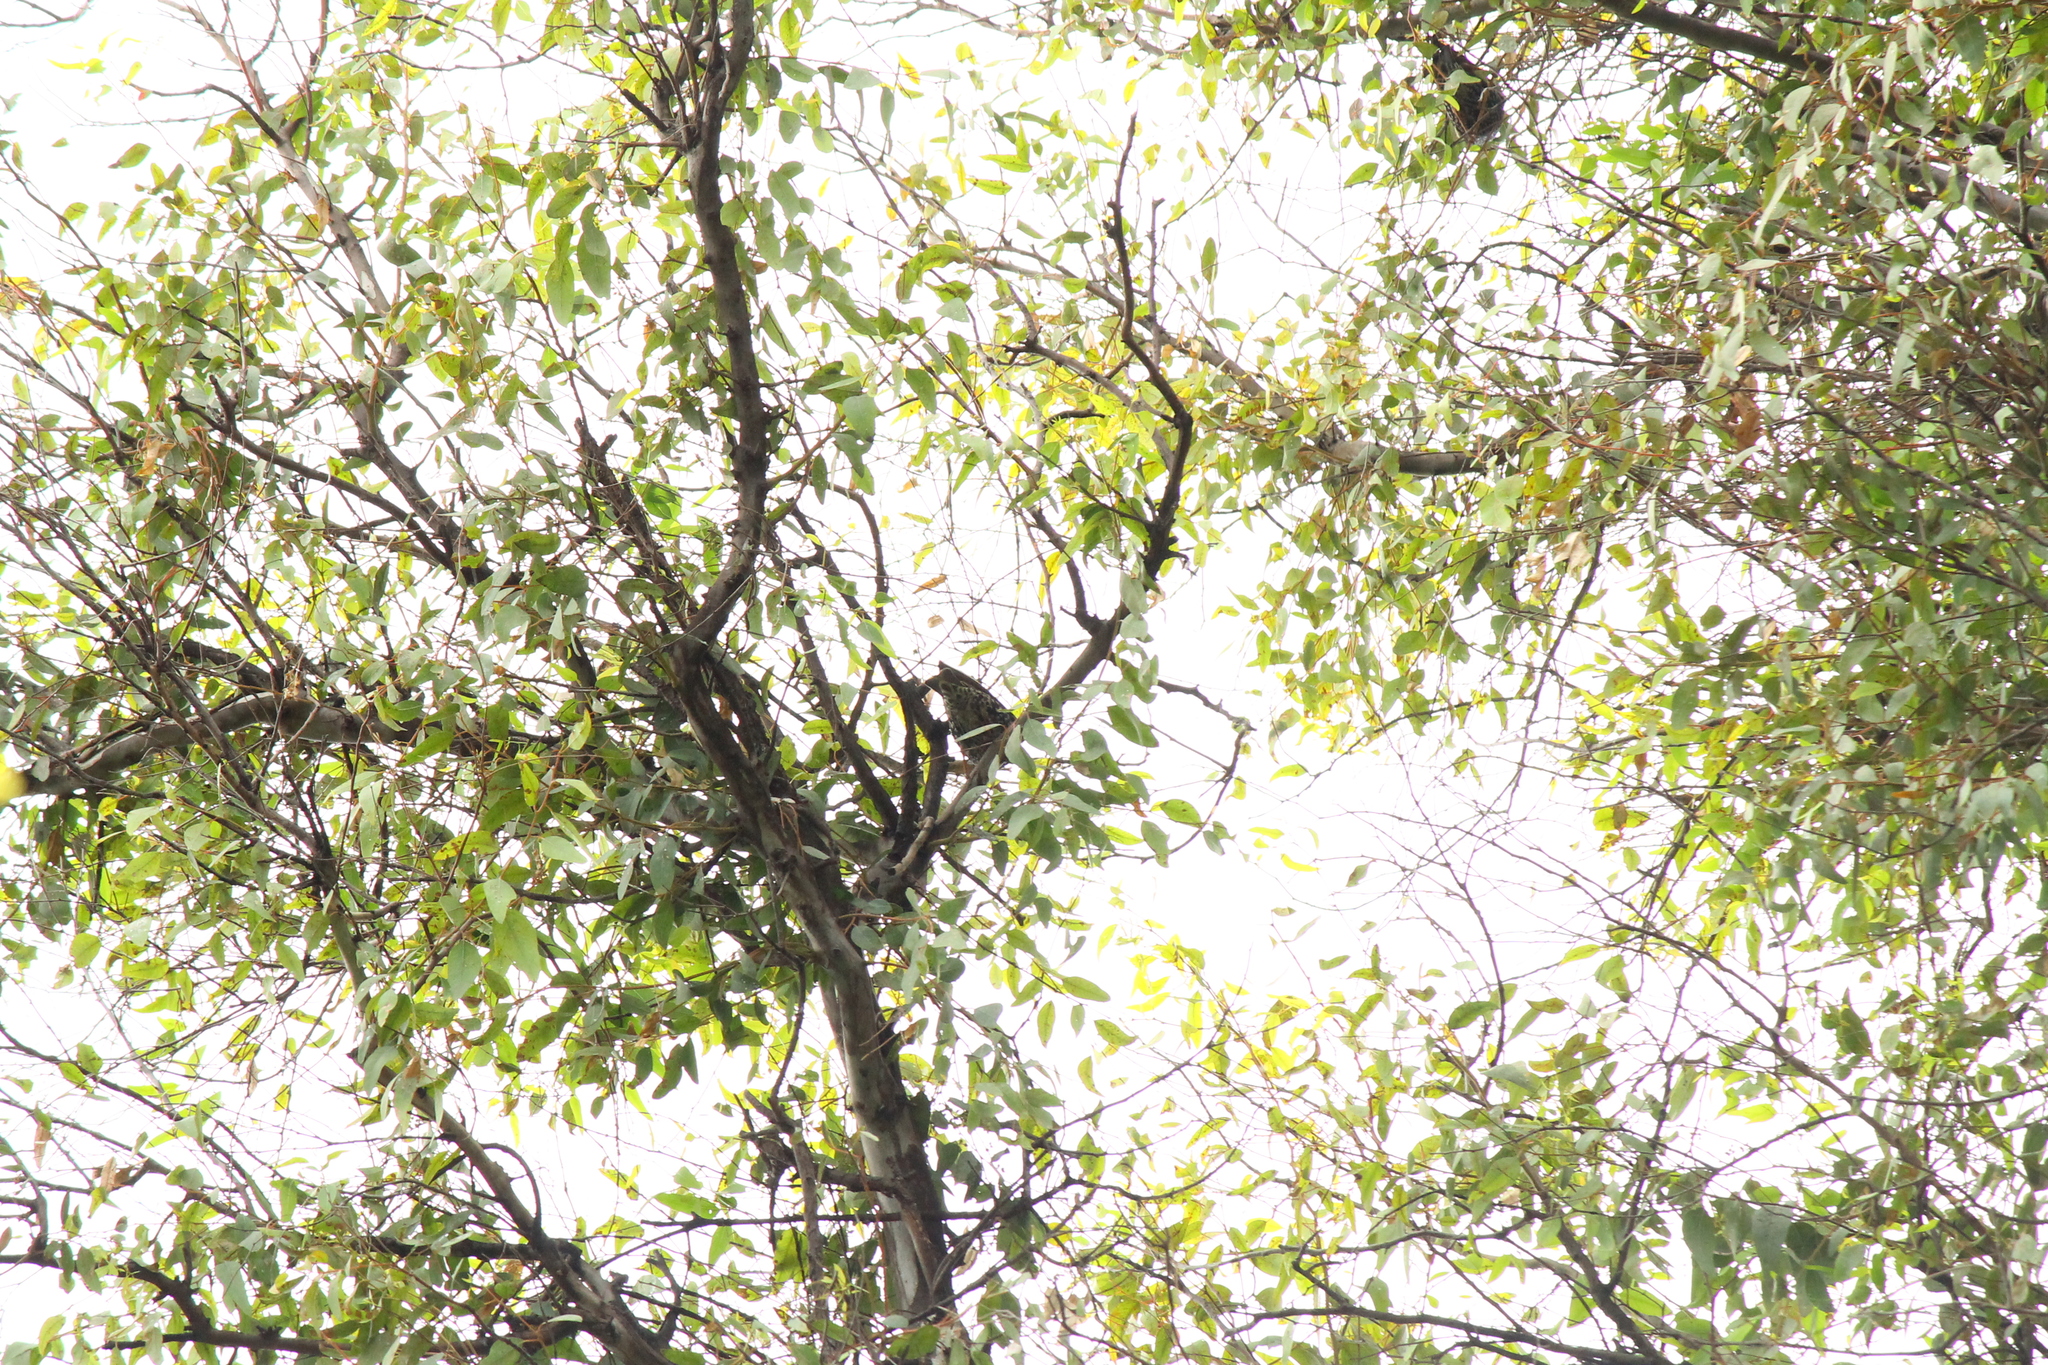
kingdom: Animalia
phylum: Chordata
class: Aves
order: Passeriformes
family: Sturnidae
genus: Sturnus
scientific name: Sturnus vulgaris
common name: Common starling
